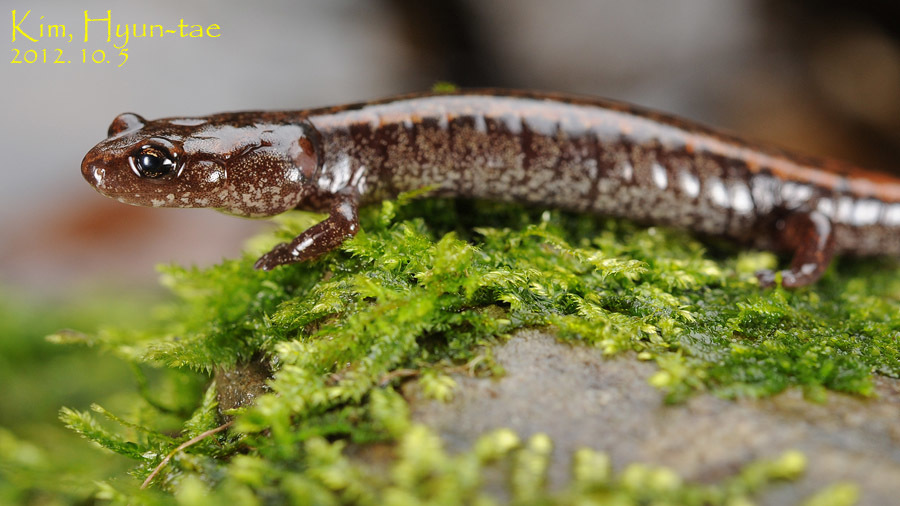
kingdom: Animalia
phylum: Chordata
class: Amphibia
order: Caudata
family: Plethodontidae
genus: Karsenia
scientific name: Karsenia koreana
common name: Korean crevice salamander
